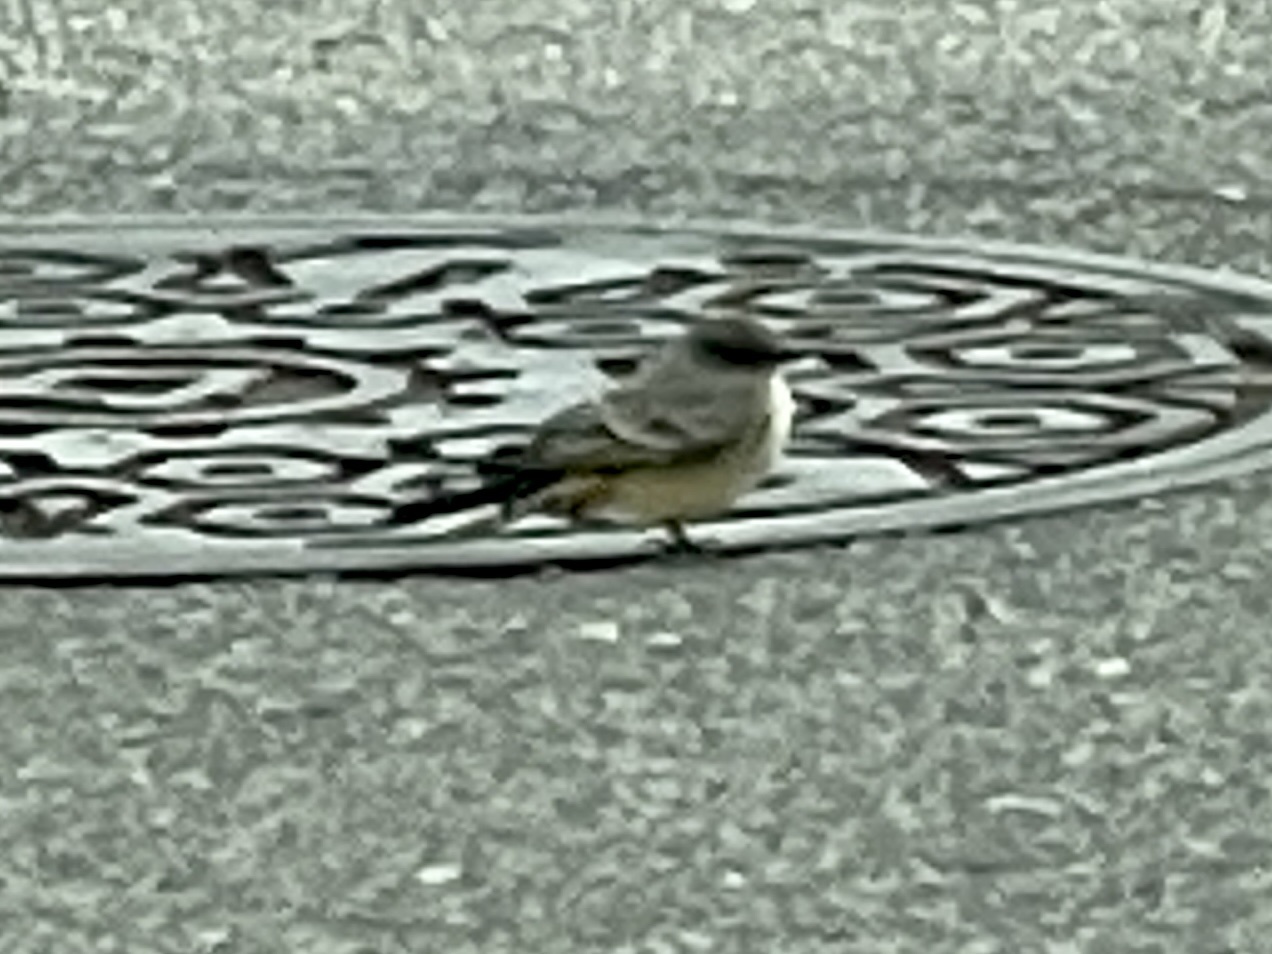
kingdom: Animalia
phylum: Chordata
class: Aves
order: Passeriformes
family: Tyrannidae
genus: Sayornis
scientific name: Sayornis saya
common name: Say's phoebe
